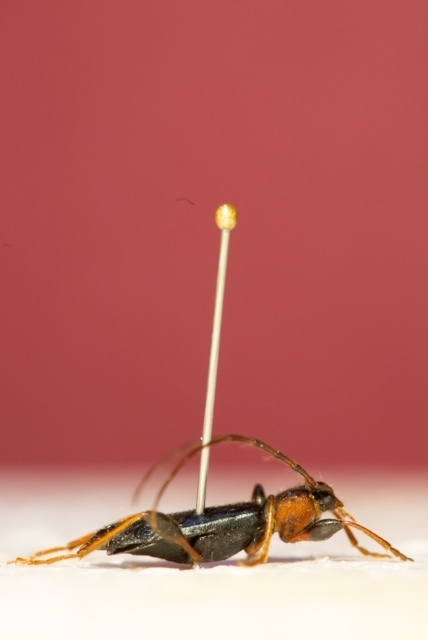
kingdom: Animalia
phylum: Arthropoda
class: Insecta
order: Coleoptera
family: Cerambycidae
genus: Phymatodes
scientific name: Phymatodes testaceus
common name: Long-horned beetle
